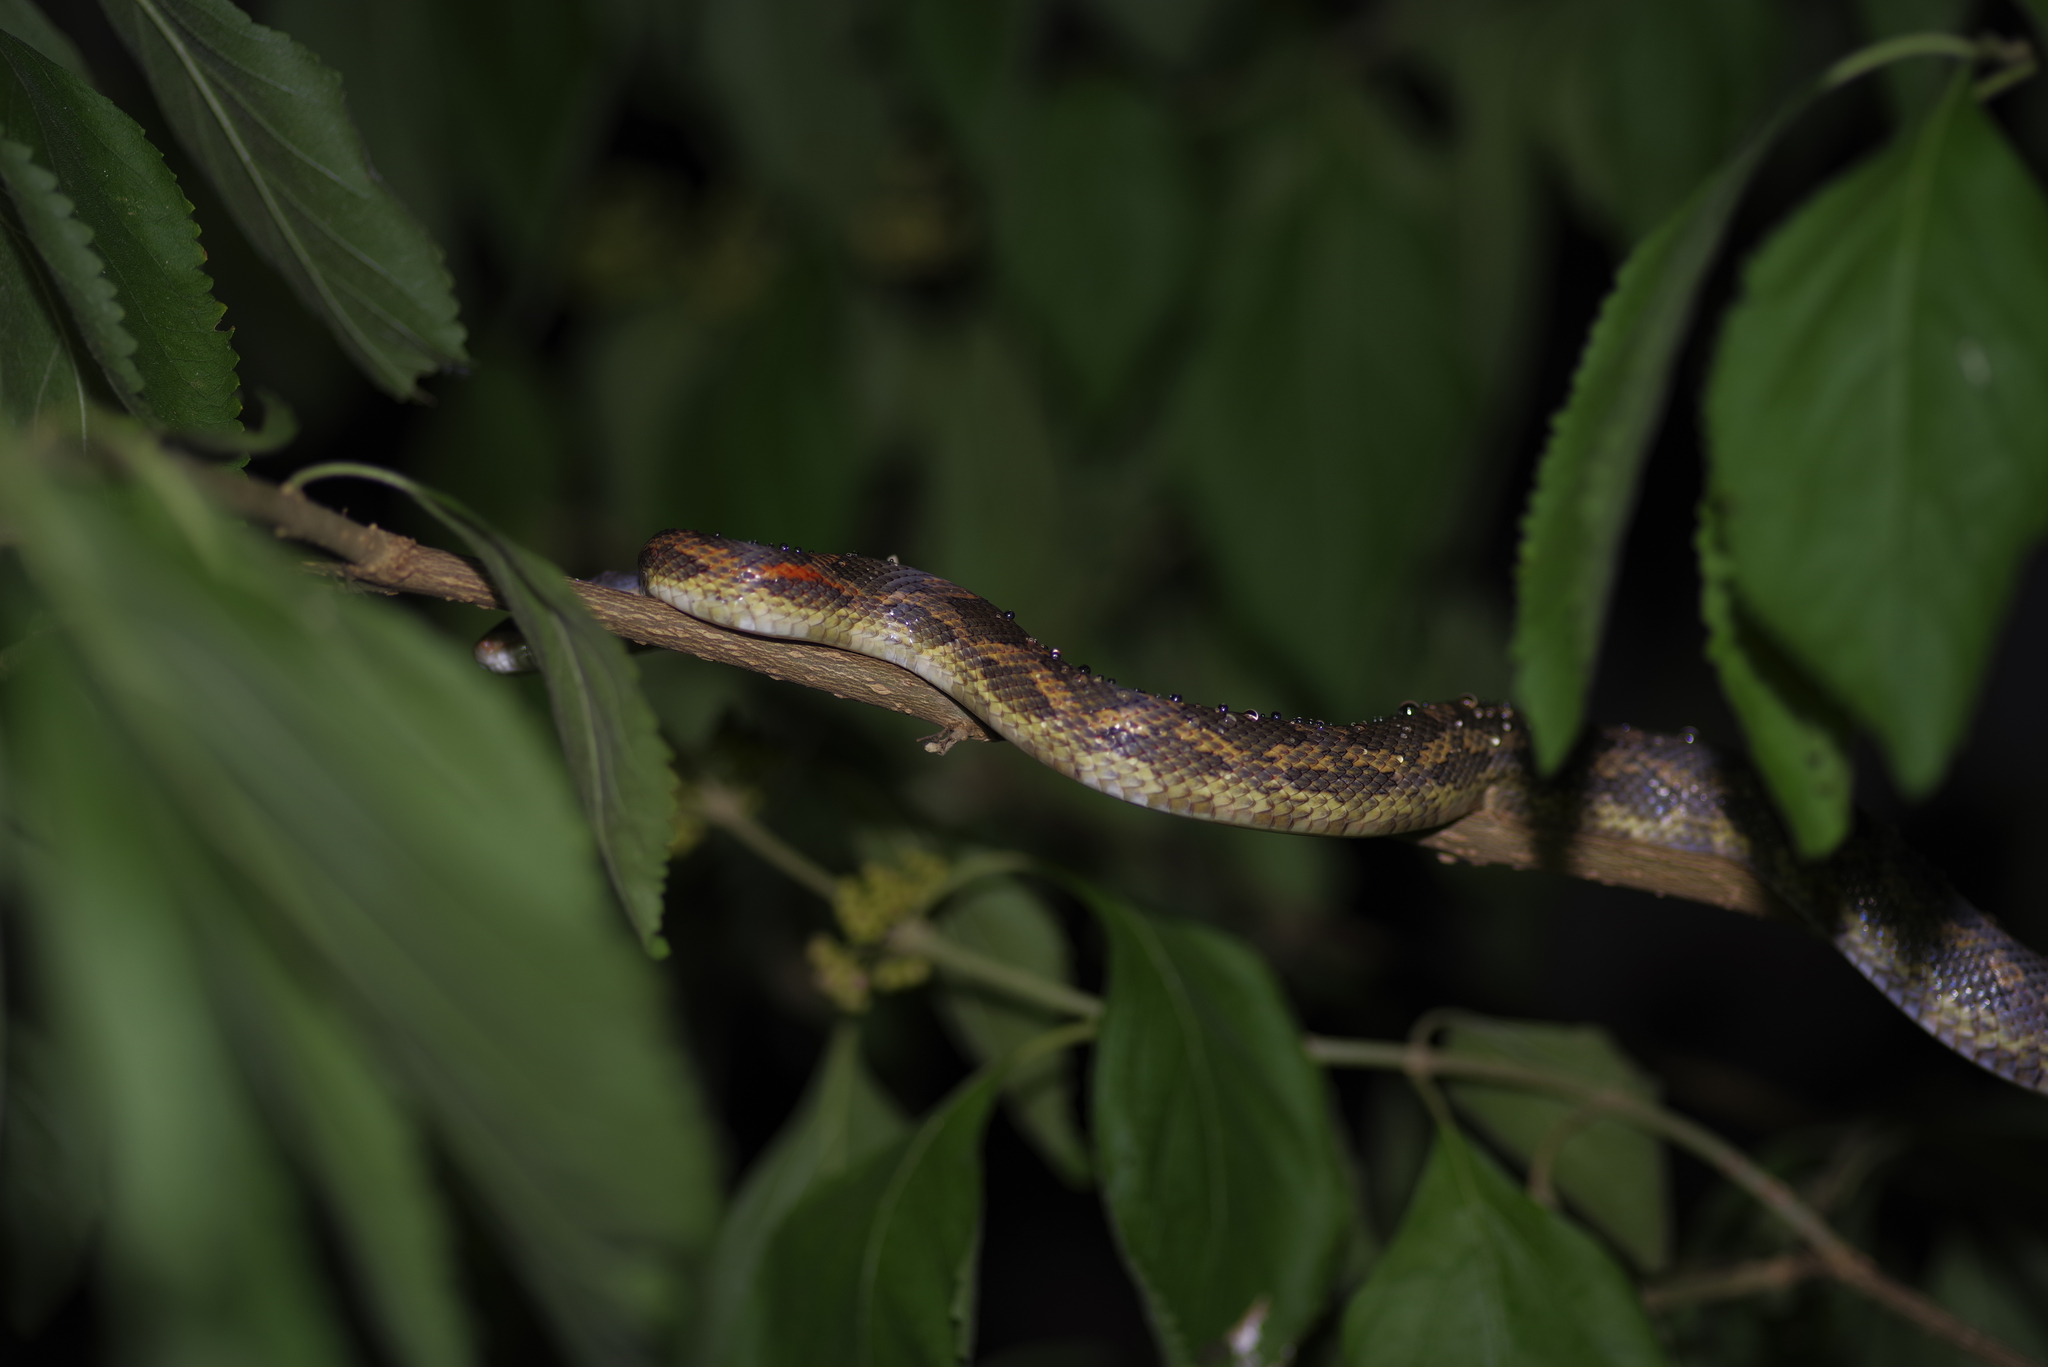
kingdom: Animalia
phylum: Chordata
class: Squamata
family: Colubridae
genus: Pantherophis
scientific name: Pantherophis obsoletus
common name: Black rat snake
